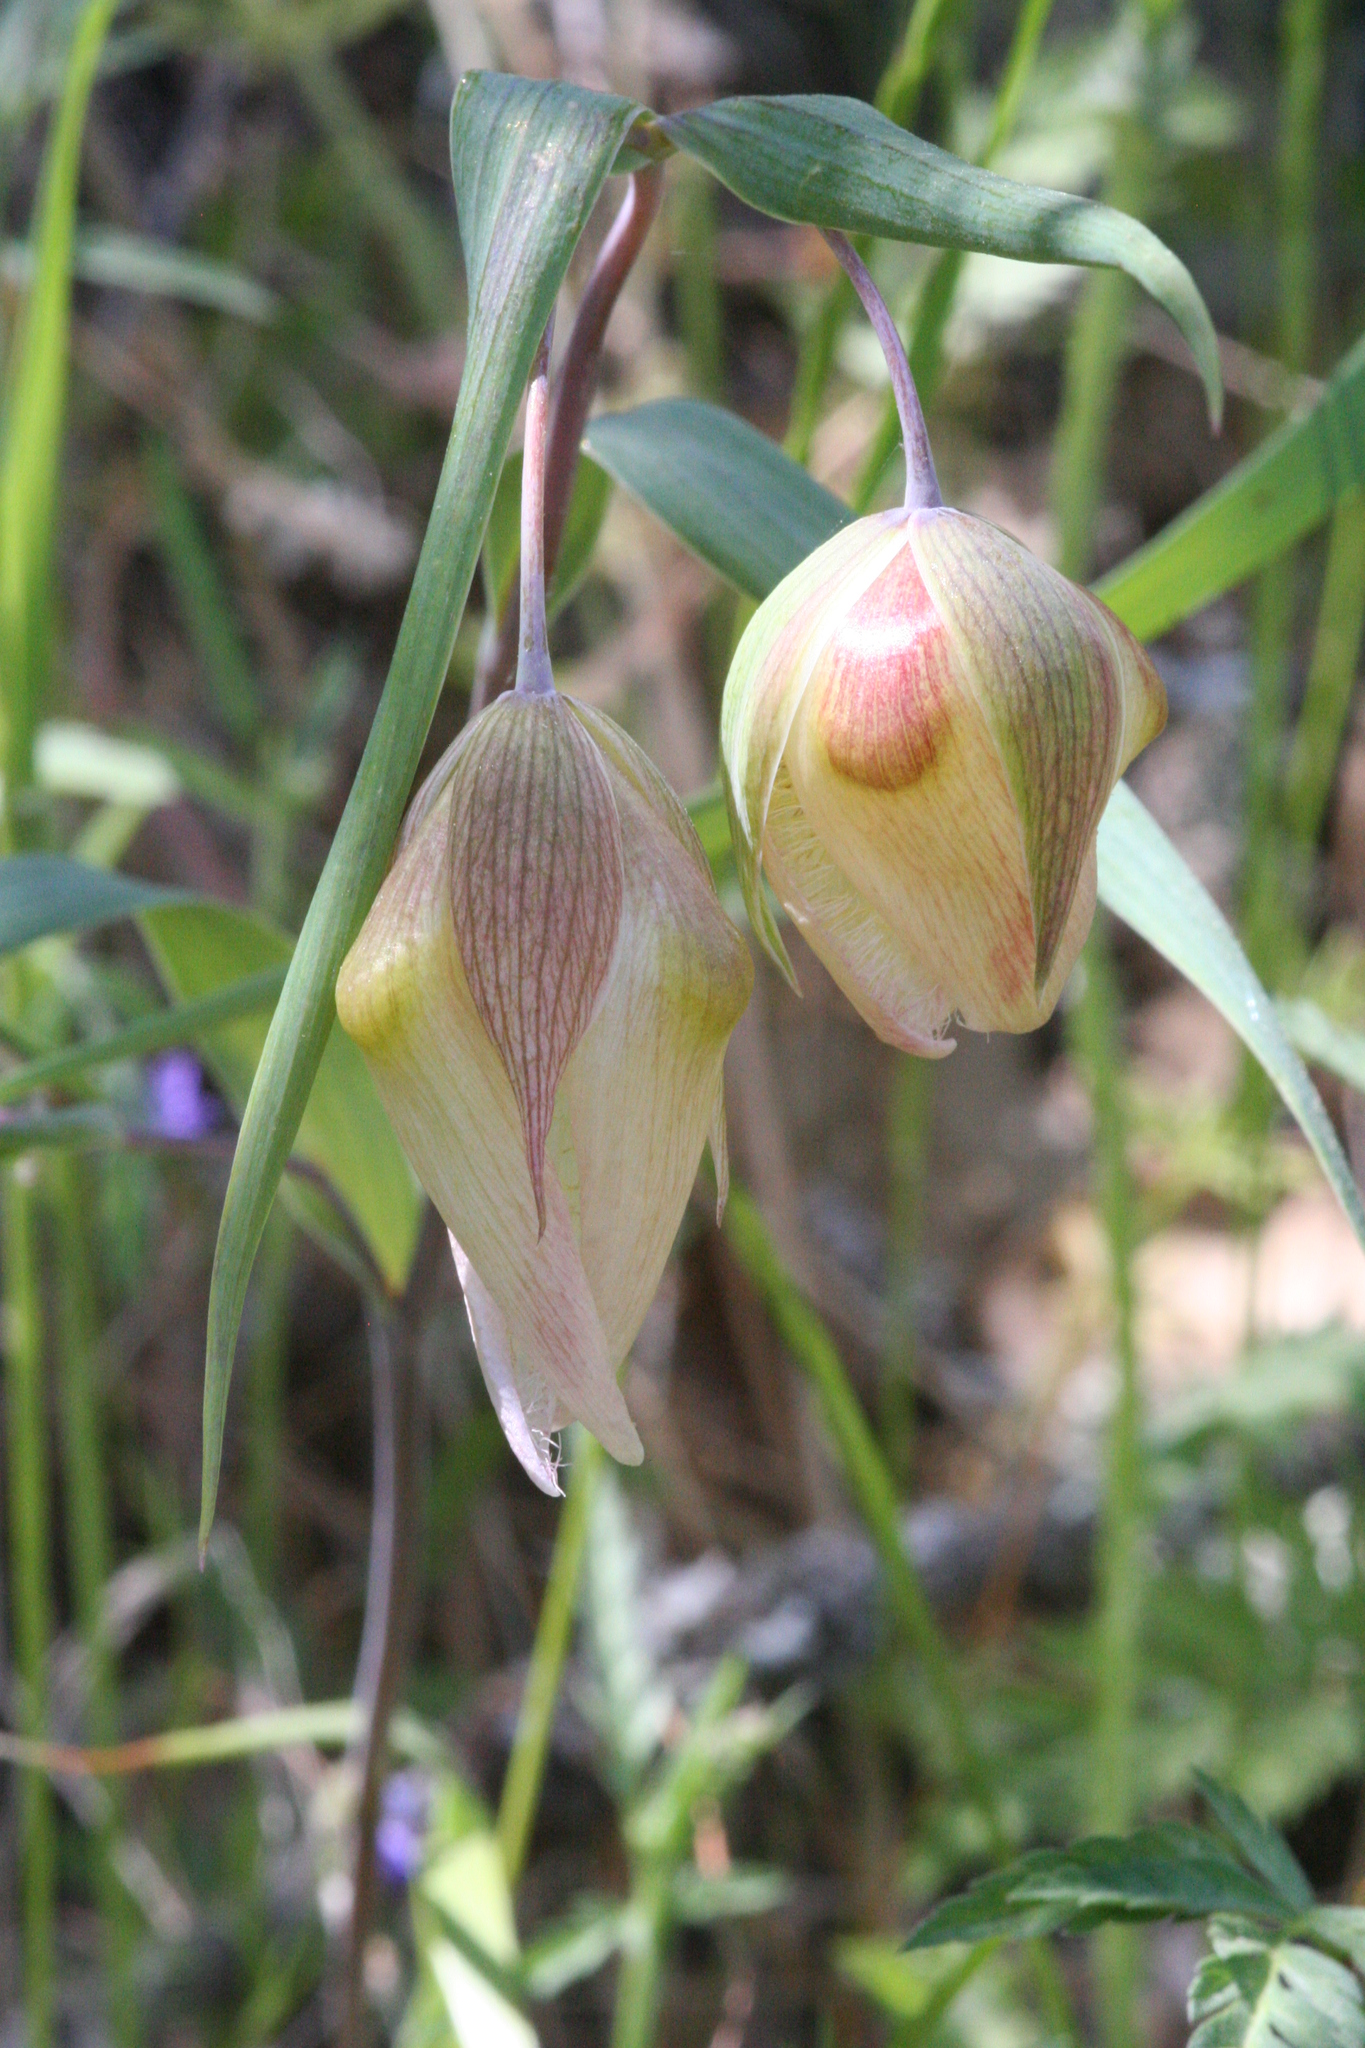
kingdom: Plantae
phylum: Tracheophyta
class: Liliopsida
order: Liliales
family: Liliaceae
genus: Calochortus
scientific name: Calochortus albus
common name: Fairy-lantern
